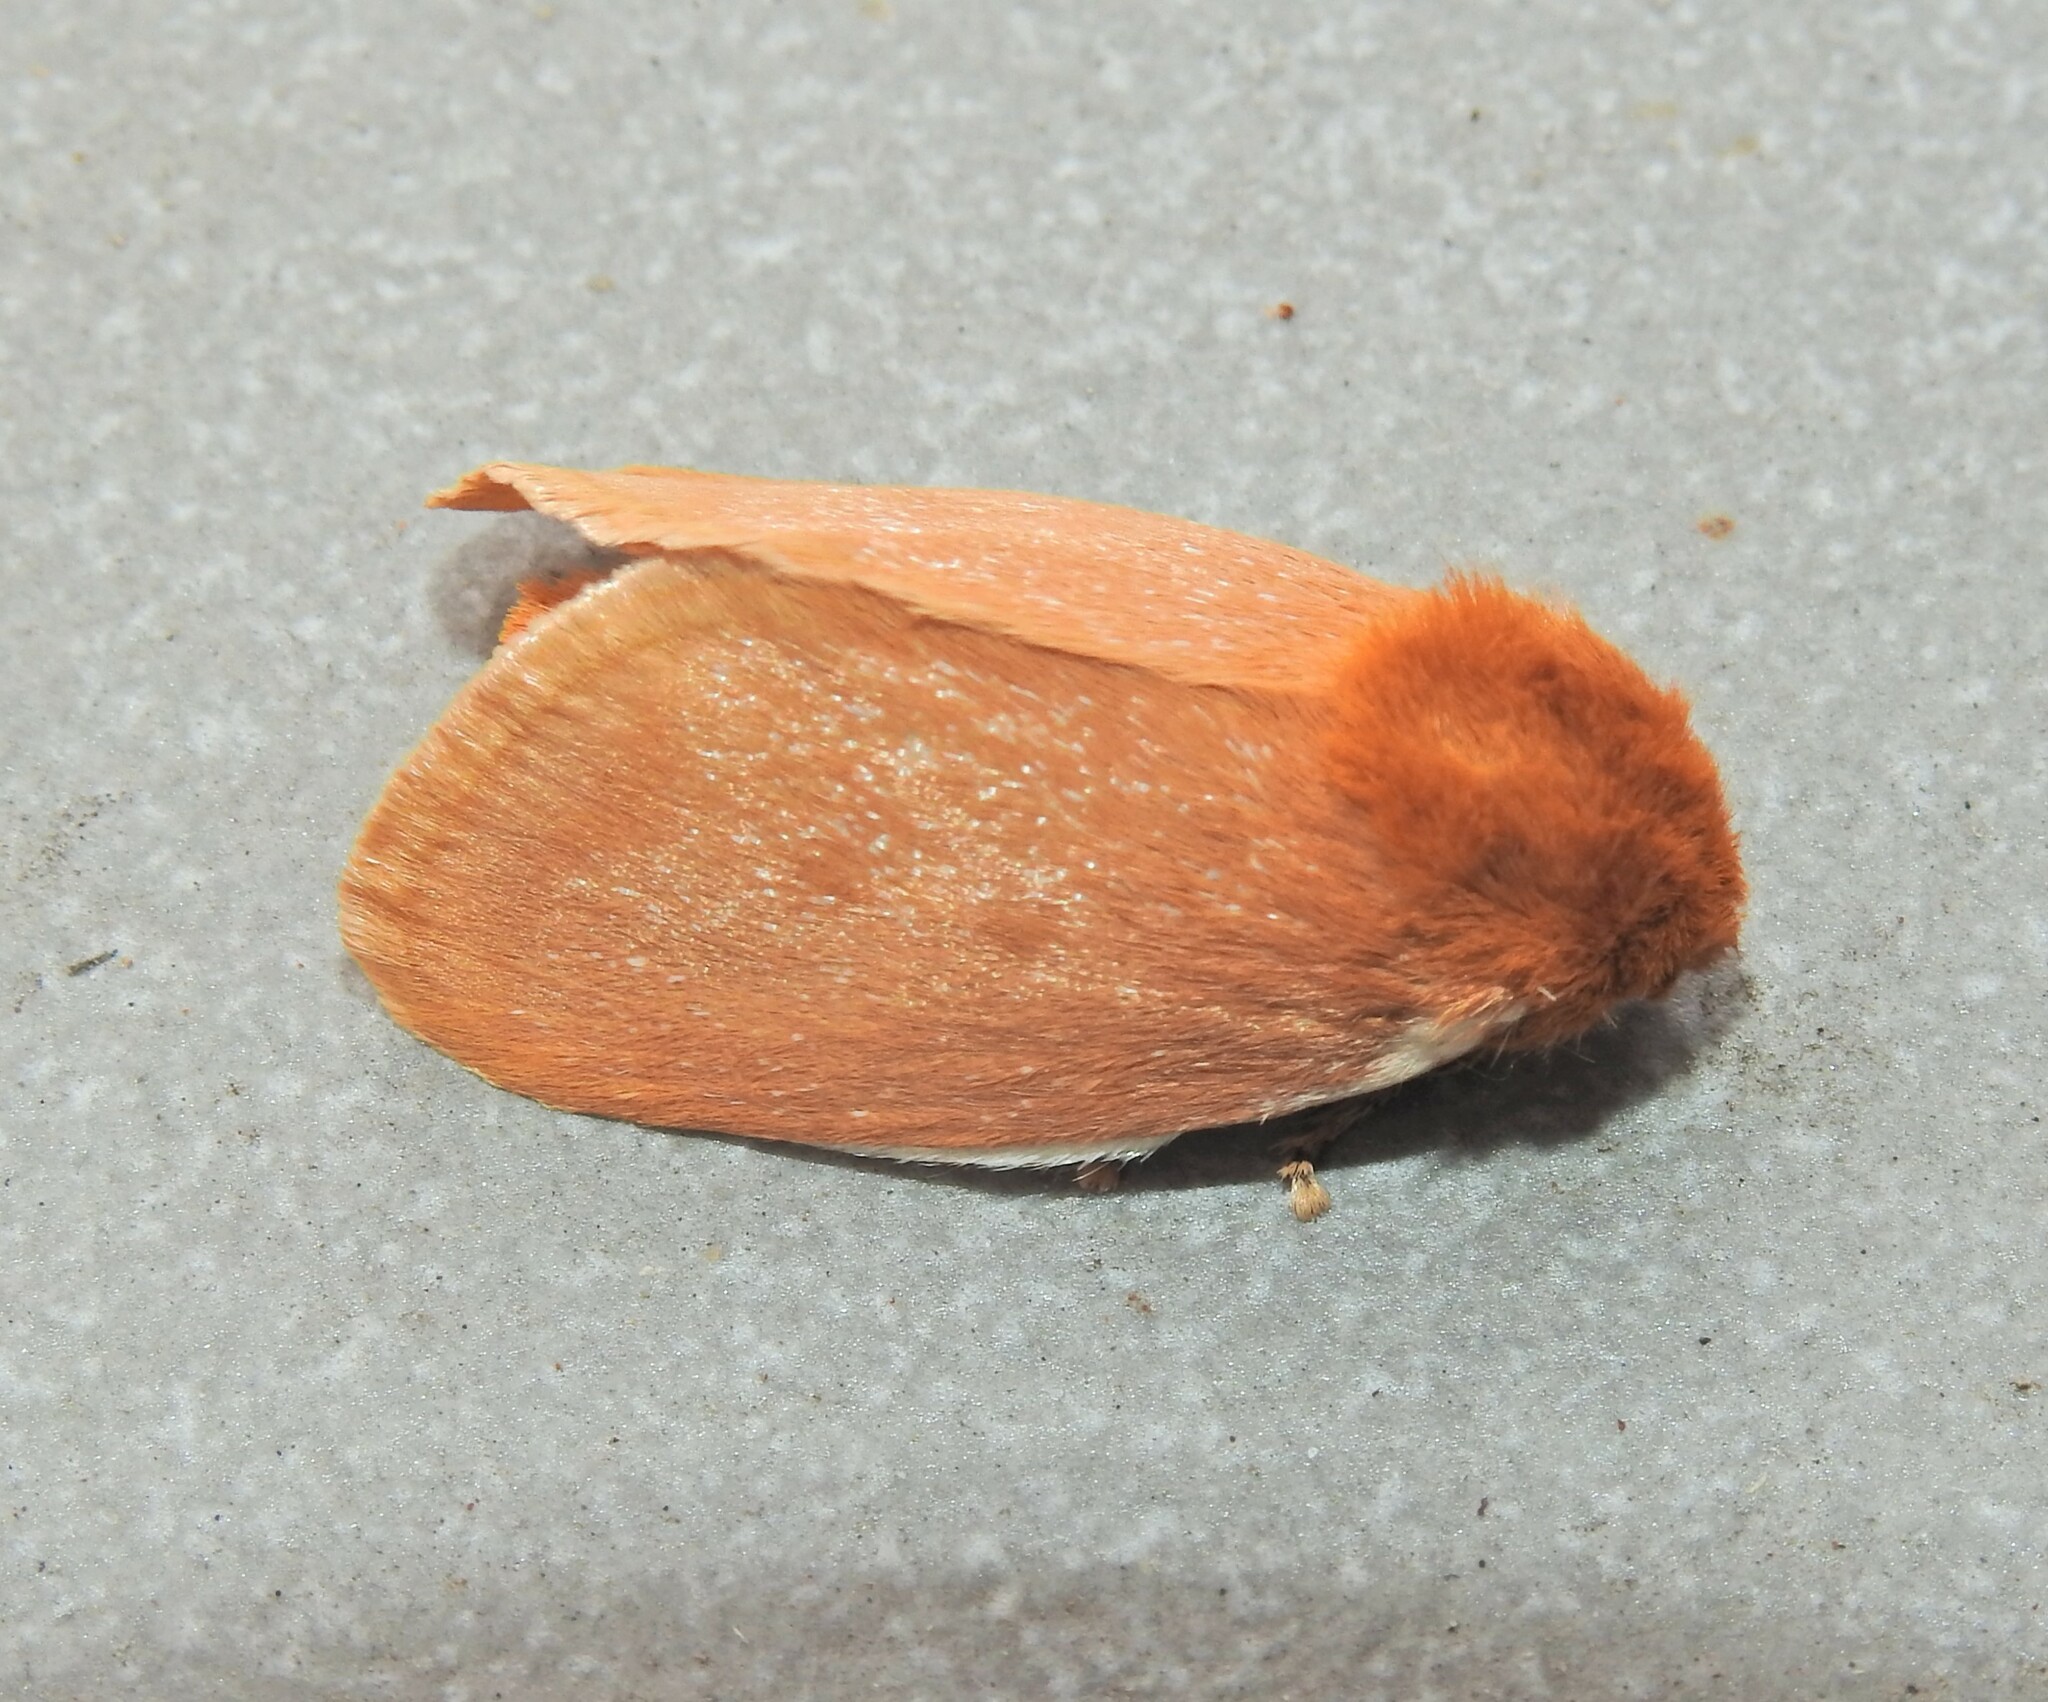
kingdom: Animalia
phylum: Arthropoda
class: Insecta
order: Lepidoptera
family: Limacodidae
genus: Comana
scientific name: Comana albibasis
